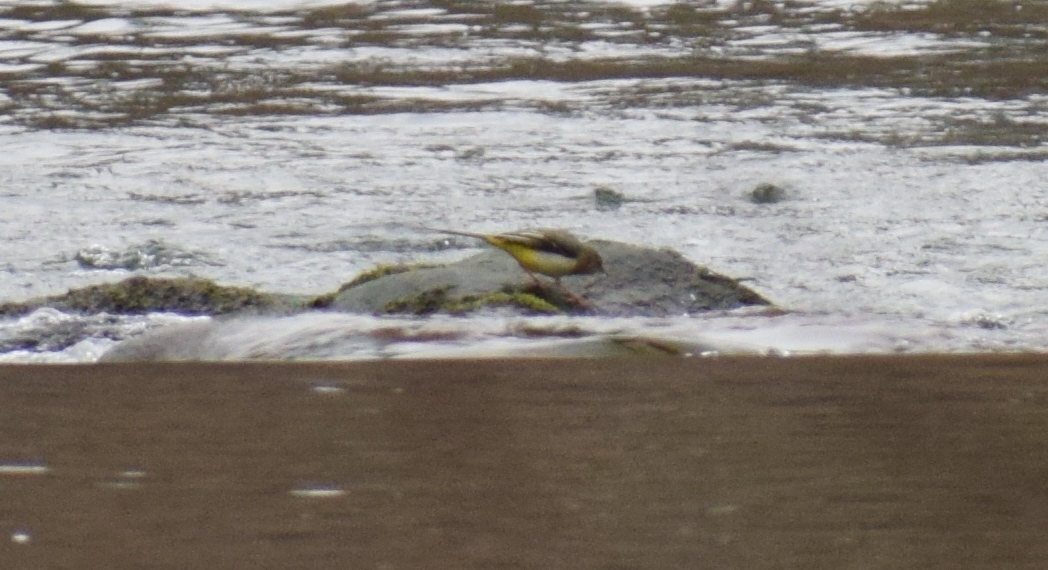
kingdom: Animalia
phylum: Chordata
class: Aves
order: Passeriformes
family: Motacillidae
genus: Motacilla
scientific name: Motacilla cinerea
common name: Grey wagtail
